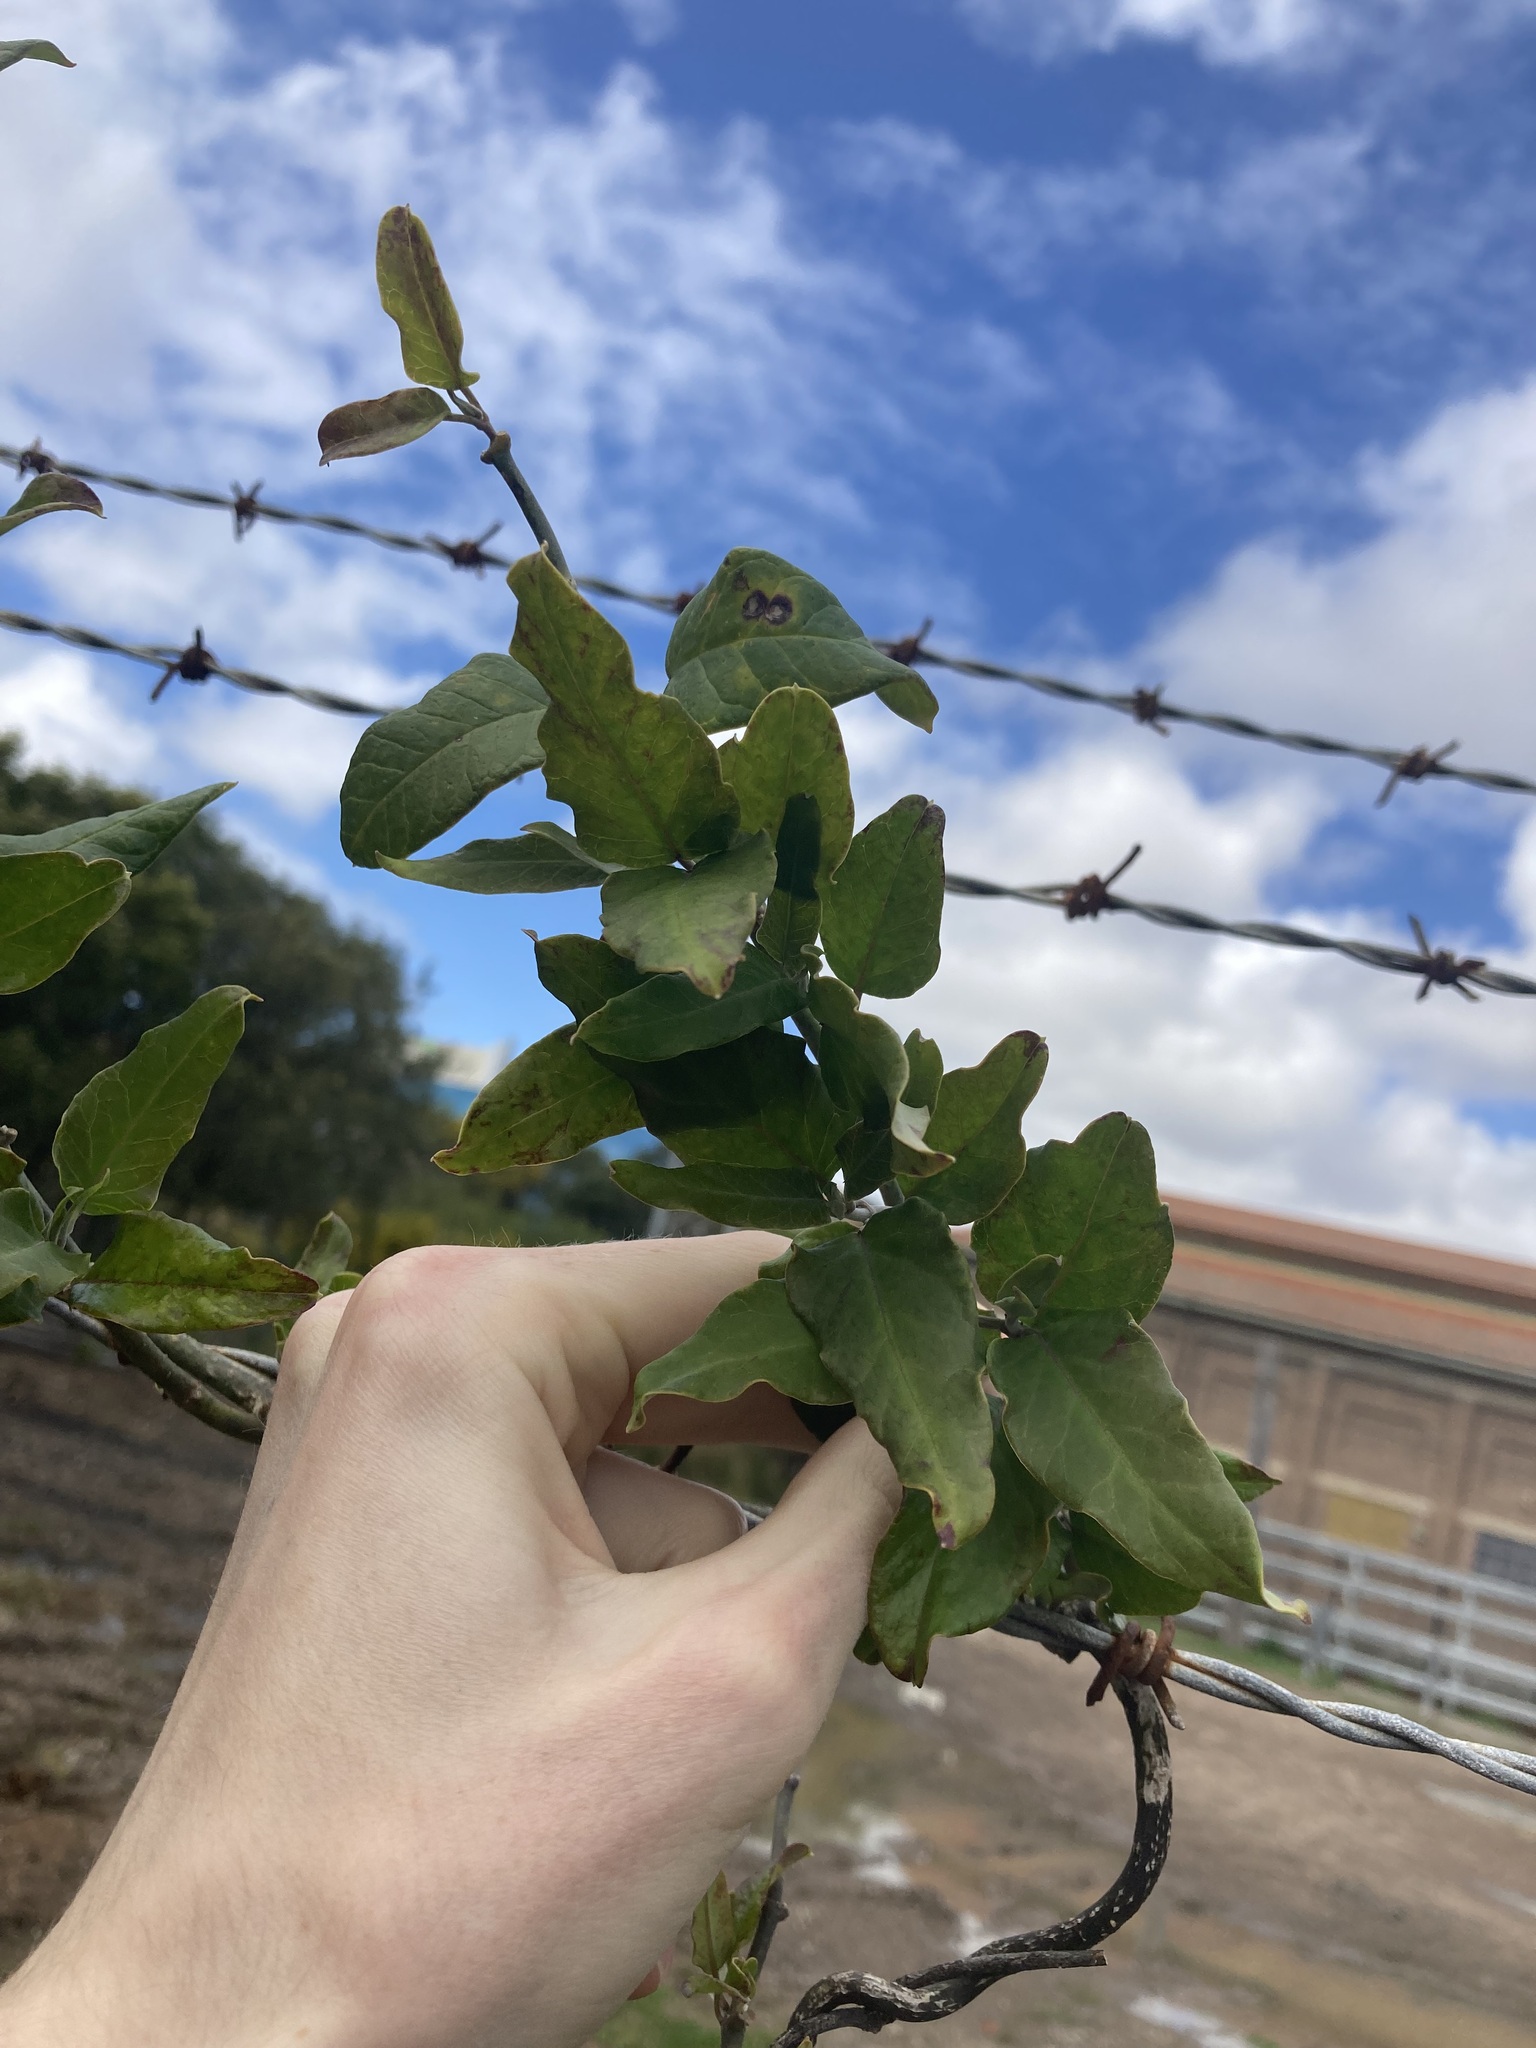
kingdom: Plantae
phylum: Tracheophyta
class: Magnoliopsida
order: Gentianales
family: Apocynaceae
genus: Araujia
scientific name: Araujia sericifera
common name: White bladderflower
